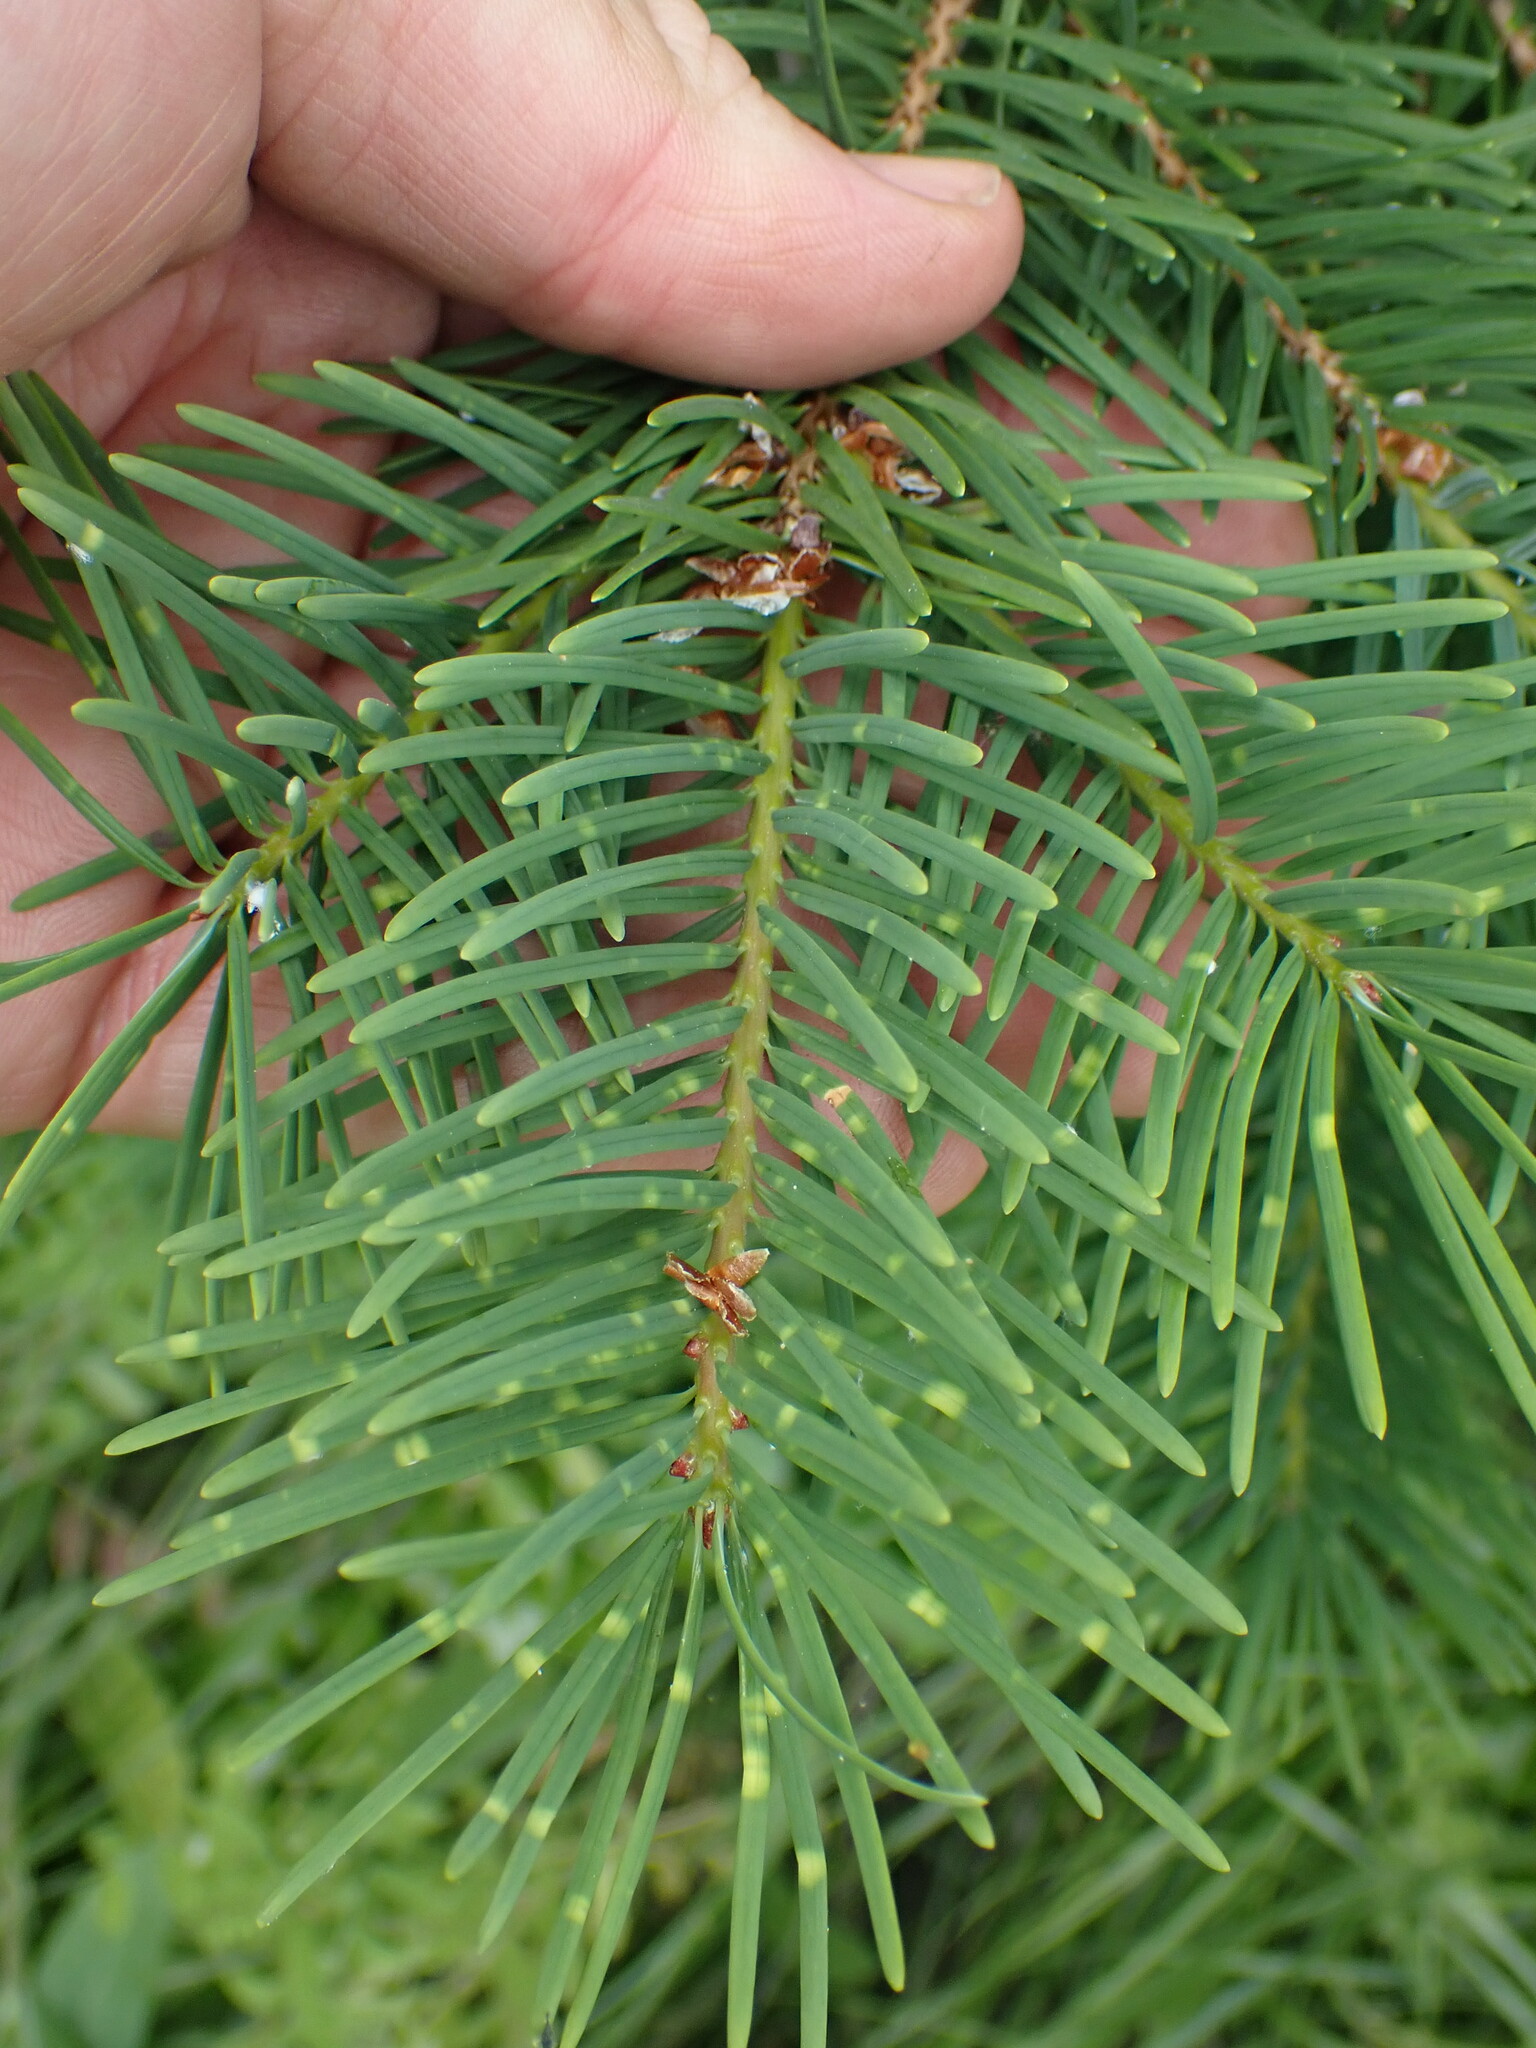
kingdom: Plantae
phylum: Tracheophyta
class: Pinopsida
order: Pinales
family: Pinaceae
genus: Pseudotsuga
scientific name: Pseudotsuga menziesii
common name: Douglas fir
